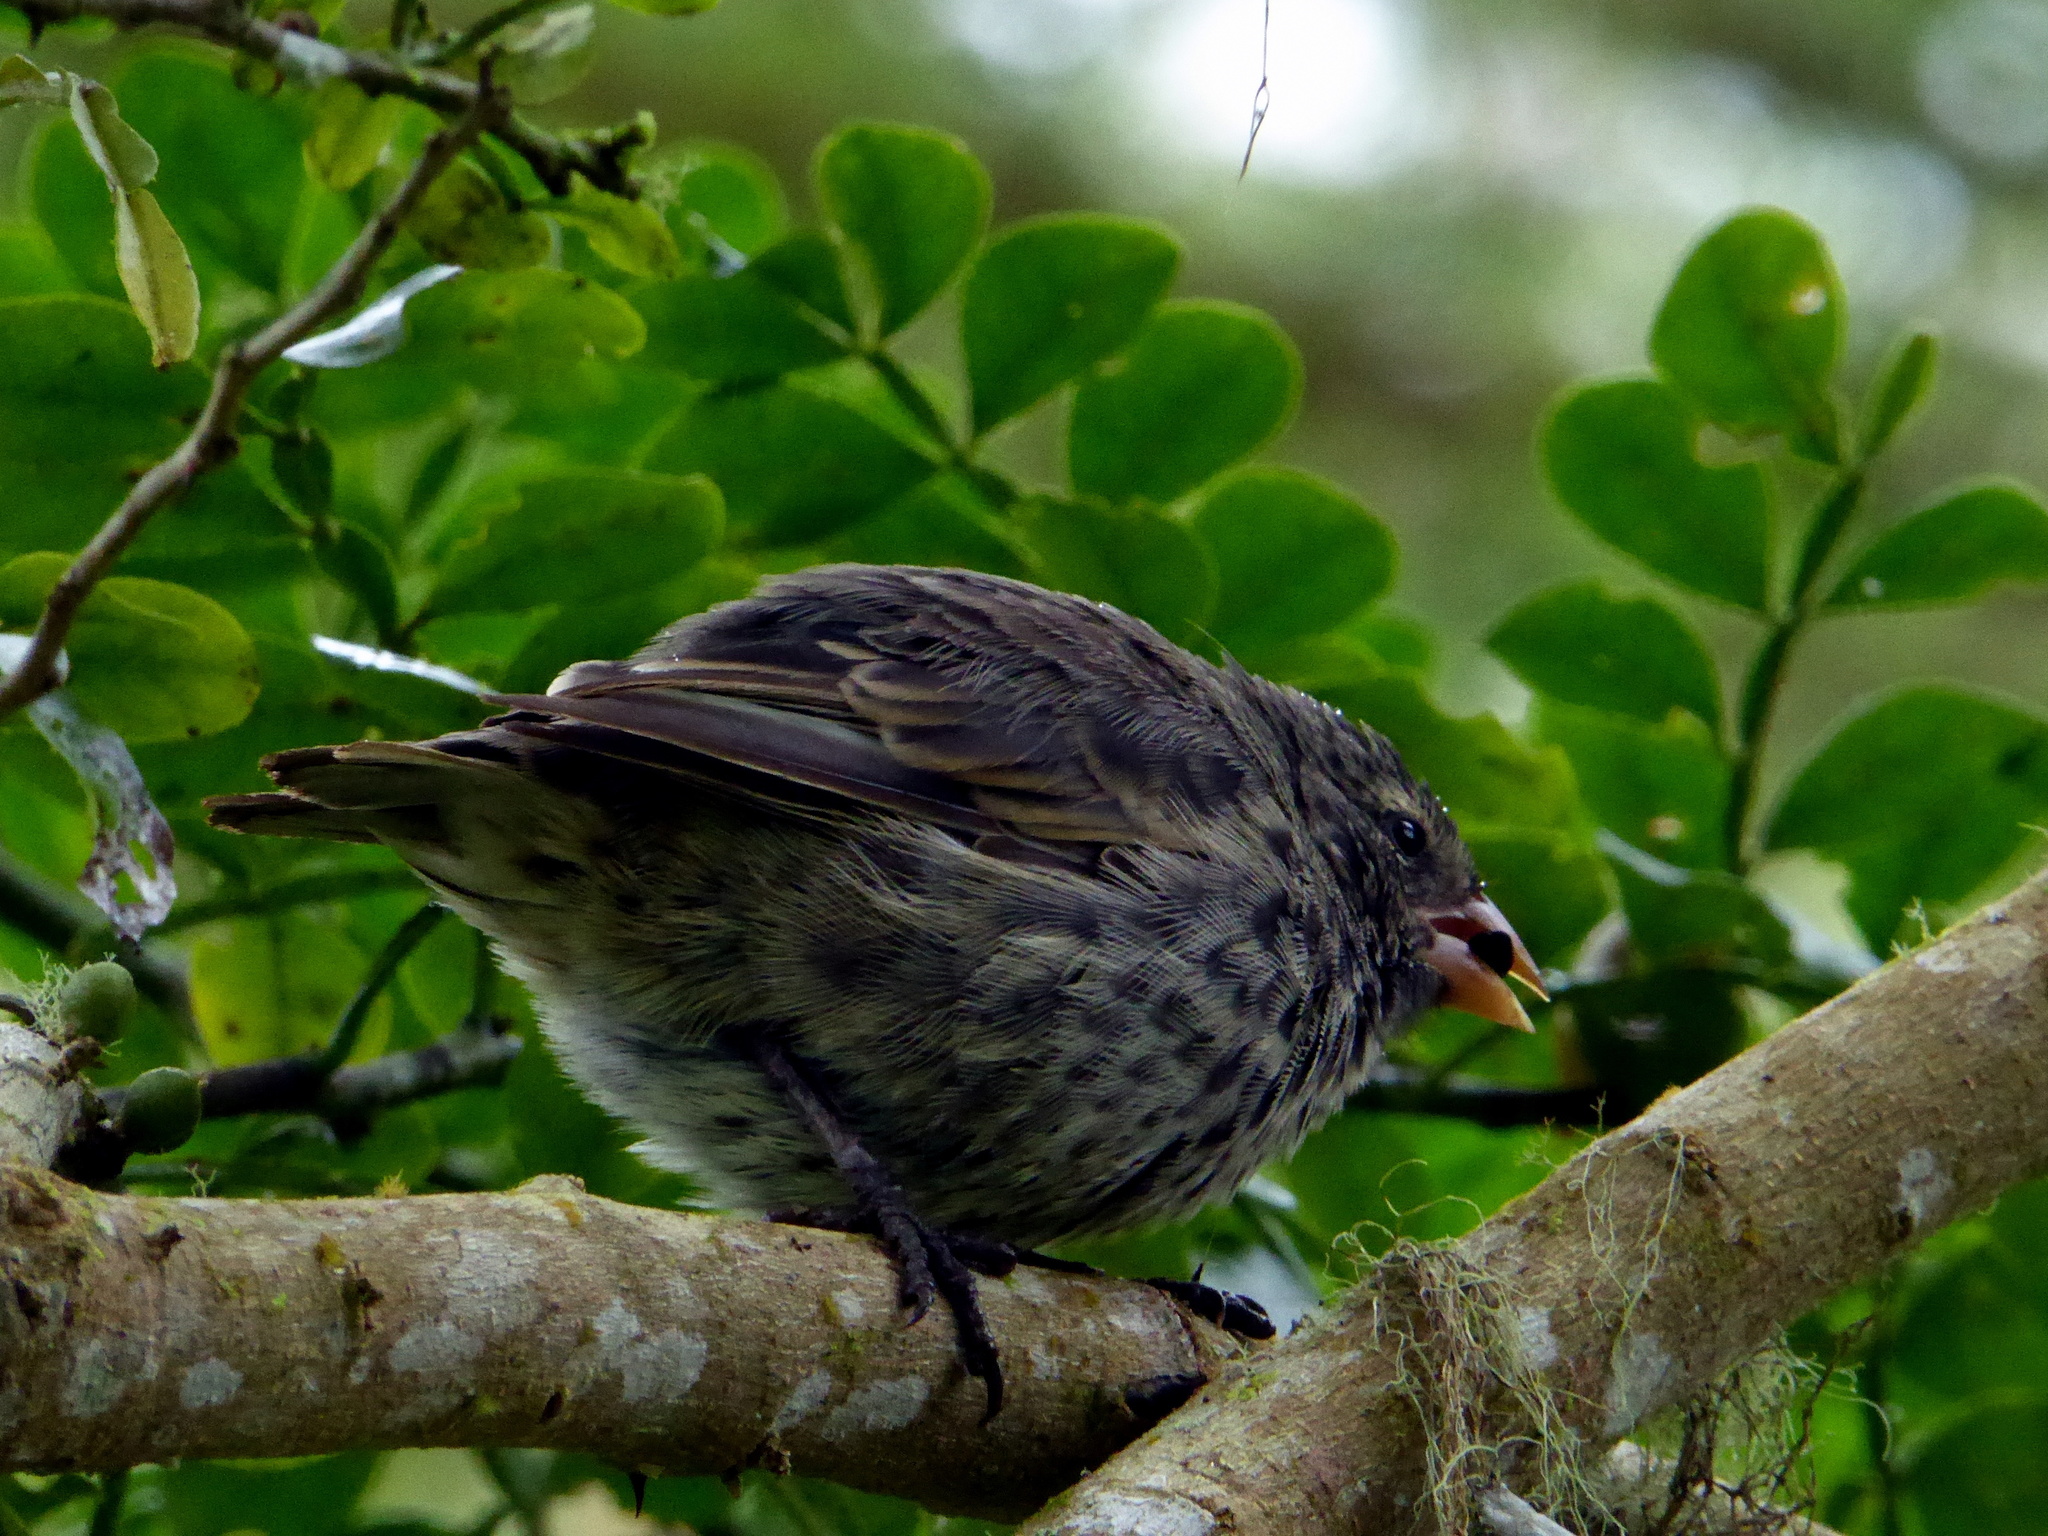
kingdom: Animalia
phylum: Chordata
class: Aves
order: Passeriformes
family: Thraupidae
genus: Geospiza
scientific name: Geospiza scandens
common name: Common cactus-finch
